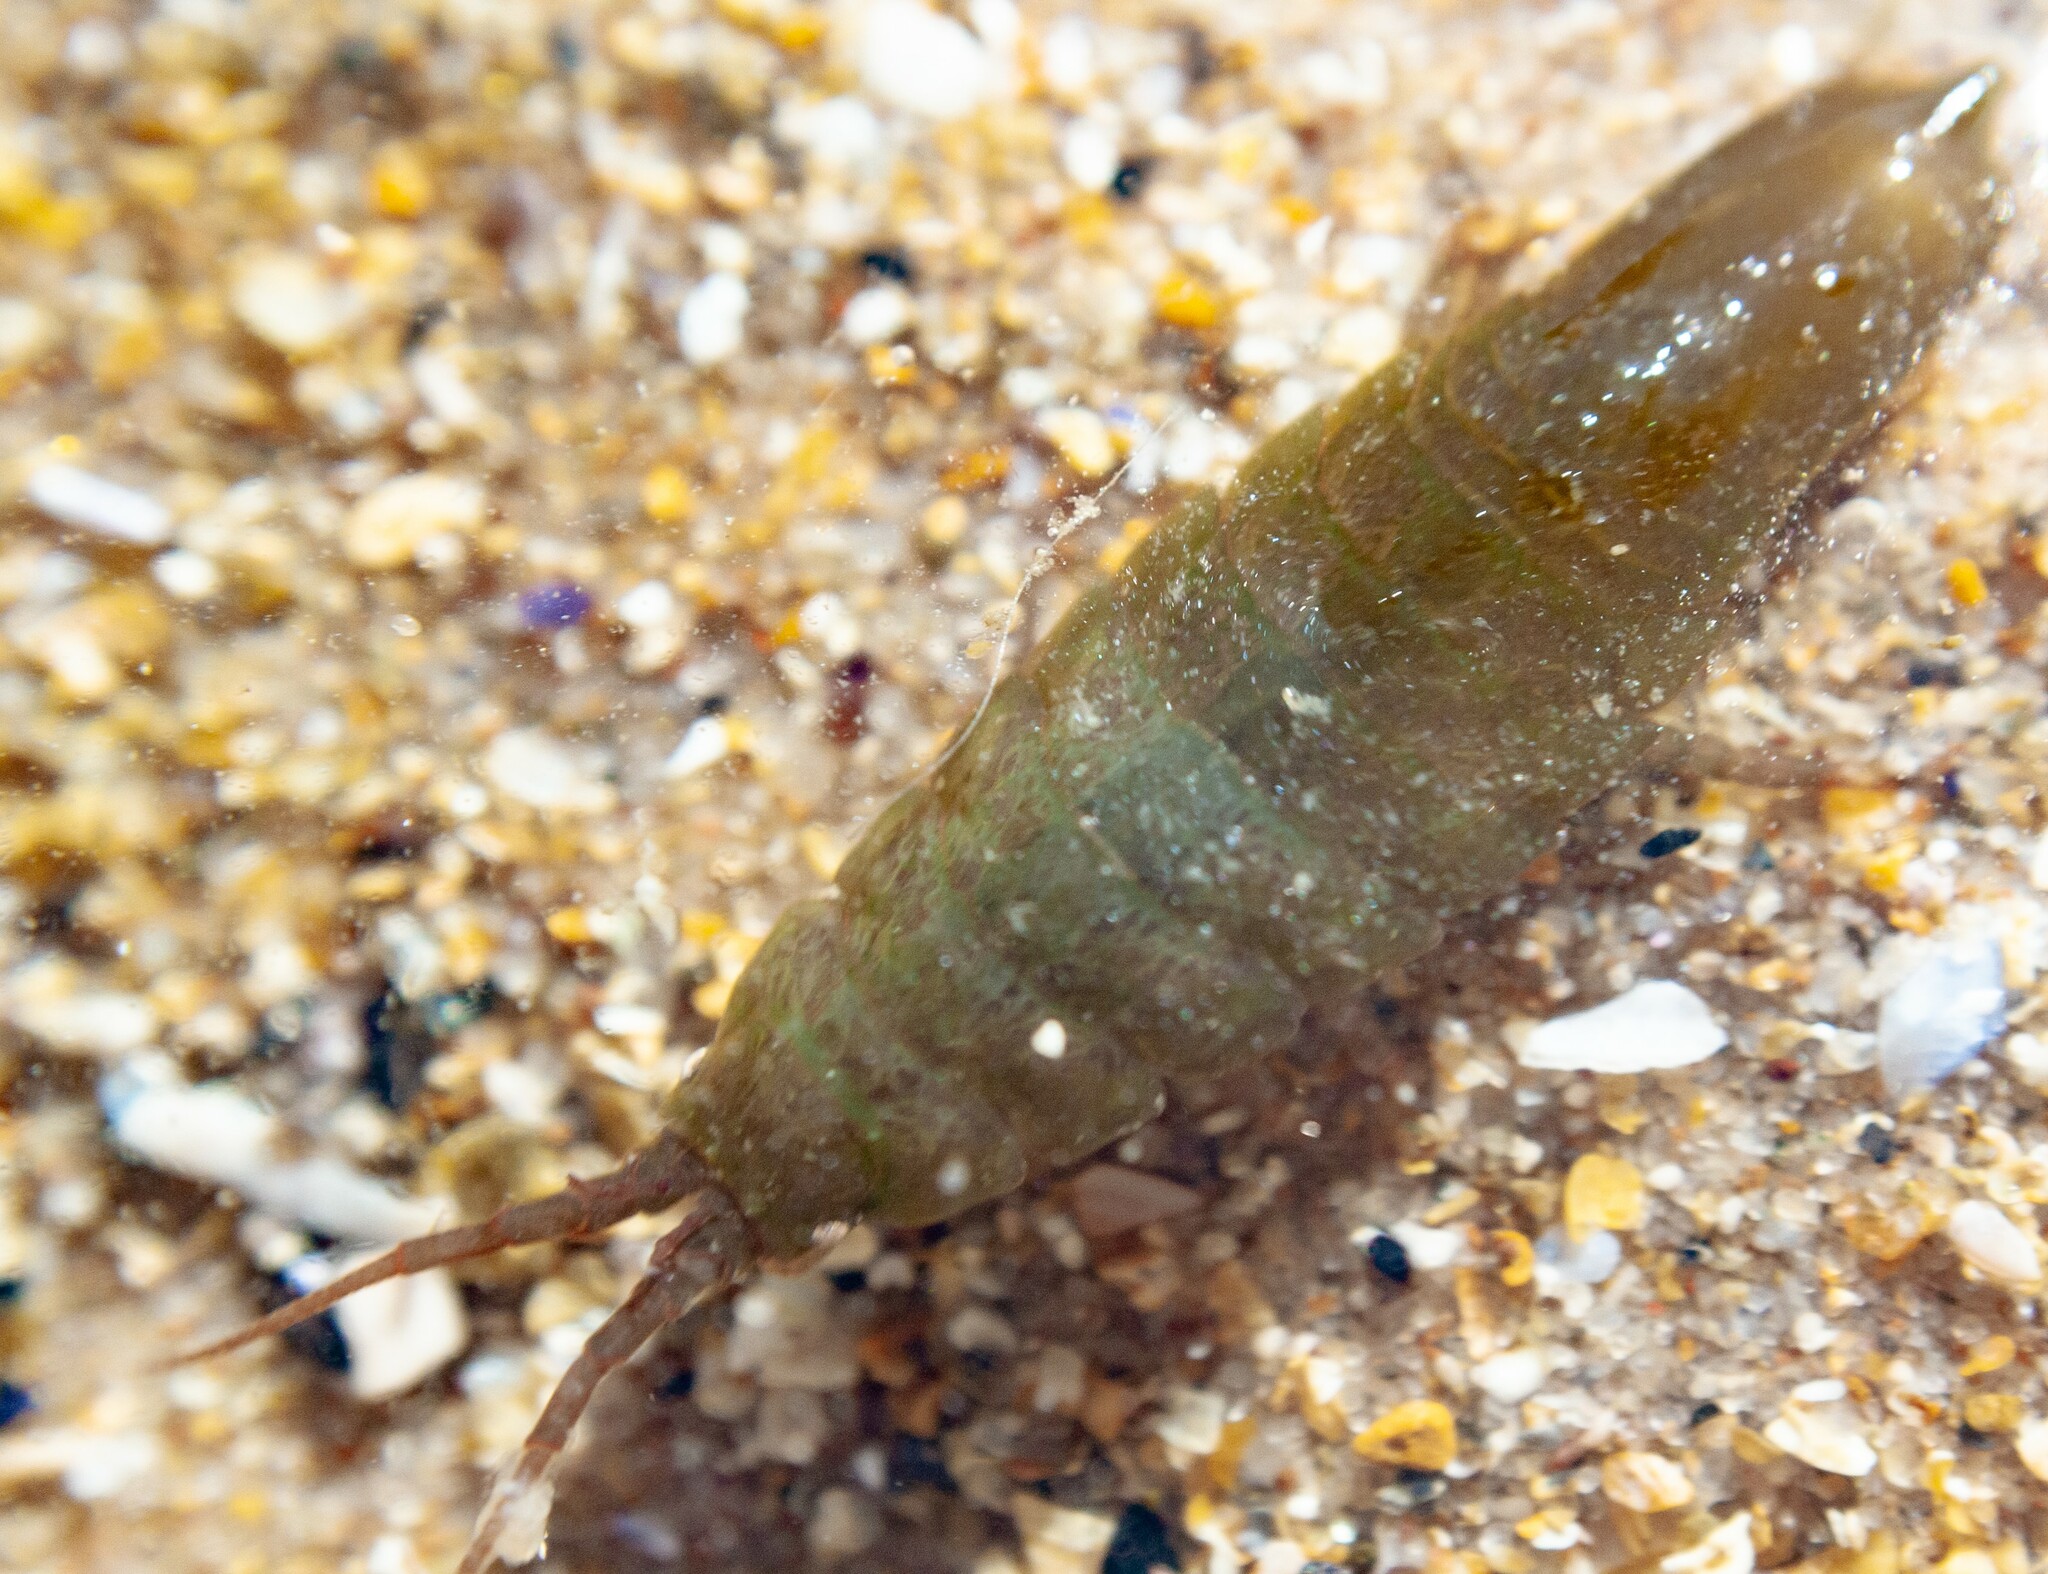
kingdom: Animalia
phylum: Arthropoda
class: Malacostraca
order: Isopoda
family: Idoteidae
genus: Idotea
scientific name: Idotea granulosa
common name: Granular marine isopod
